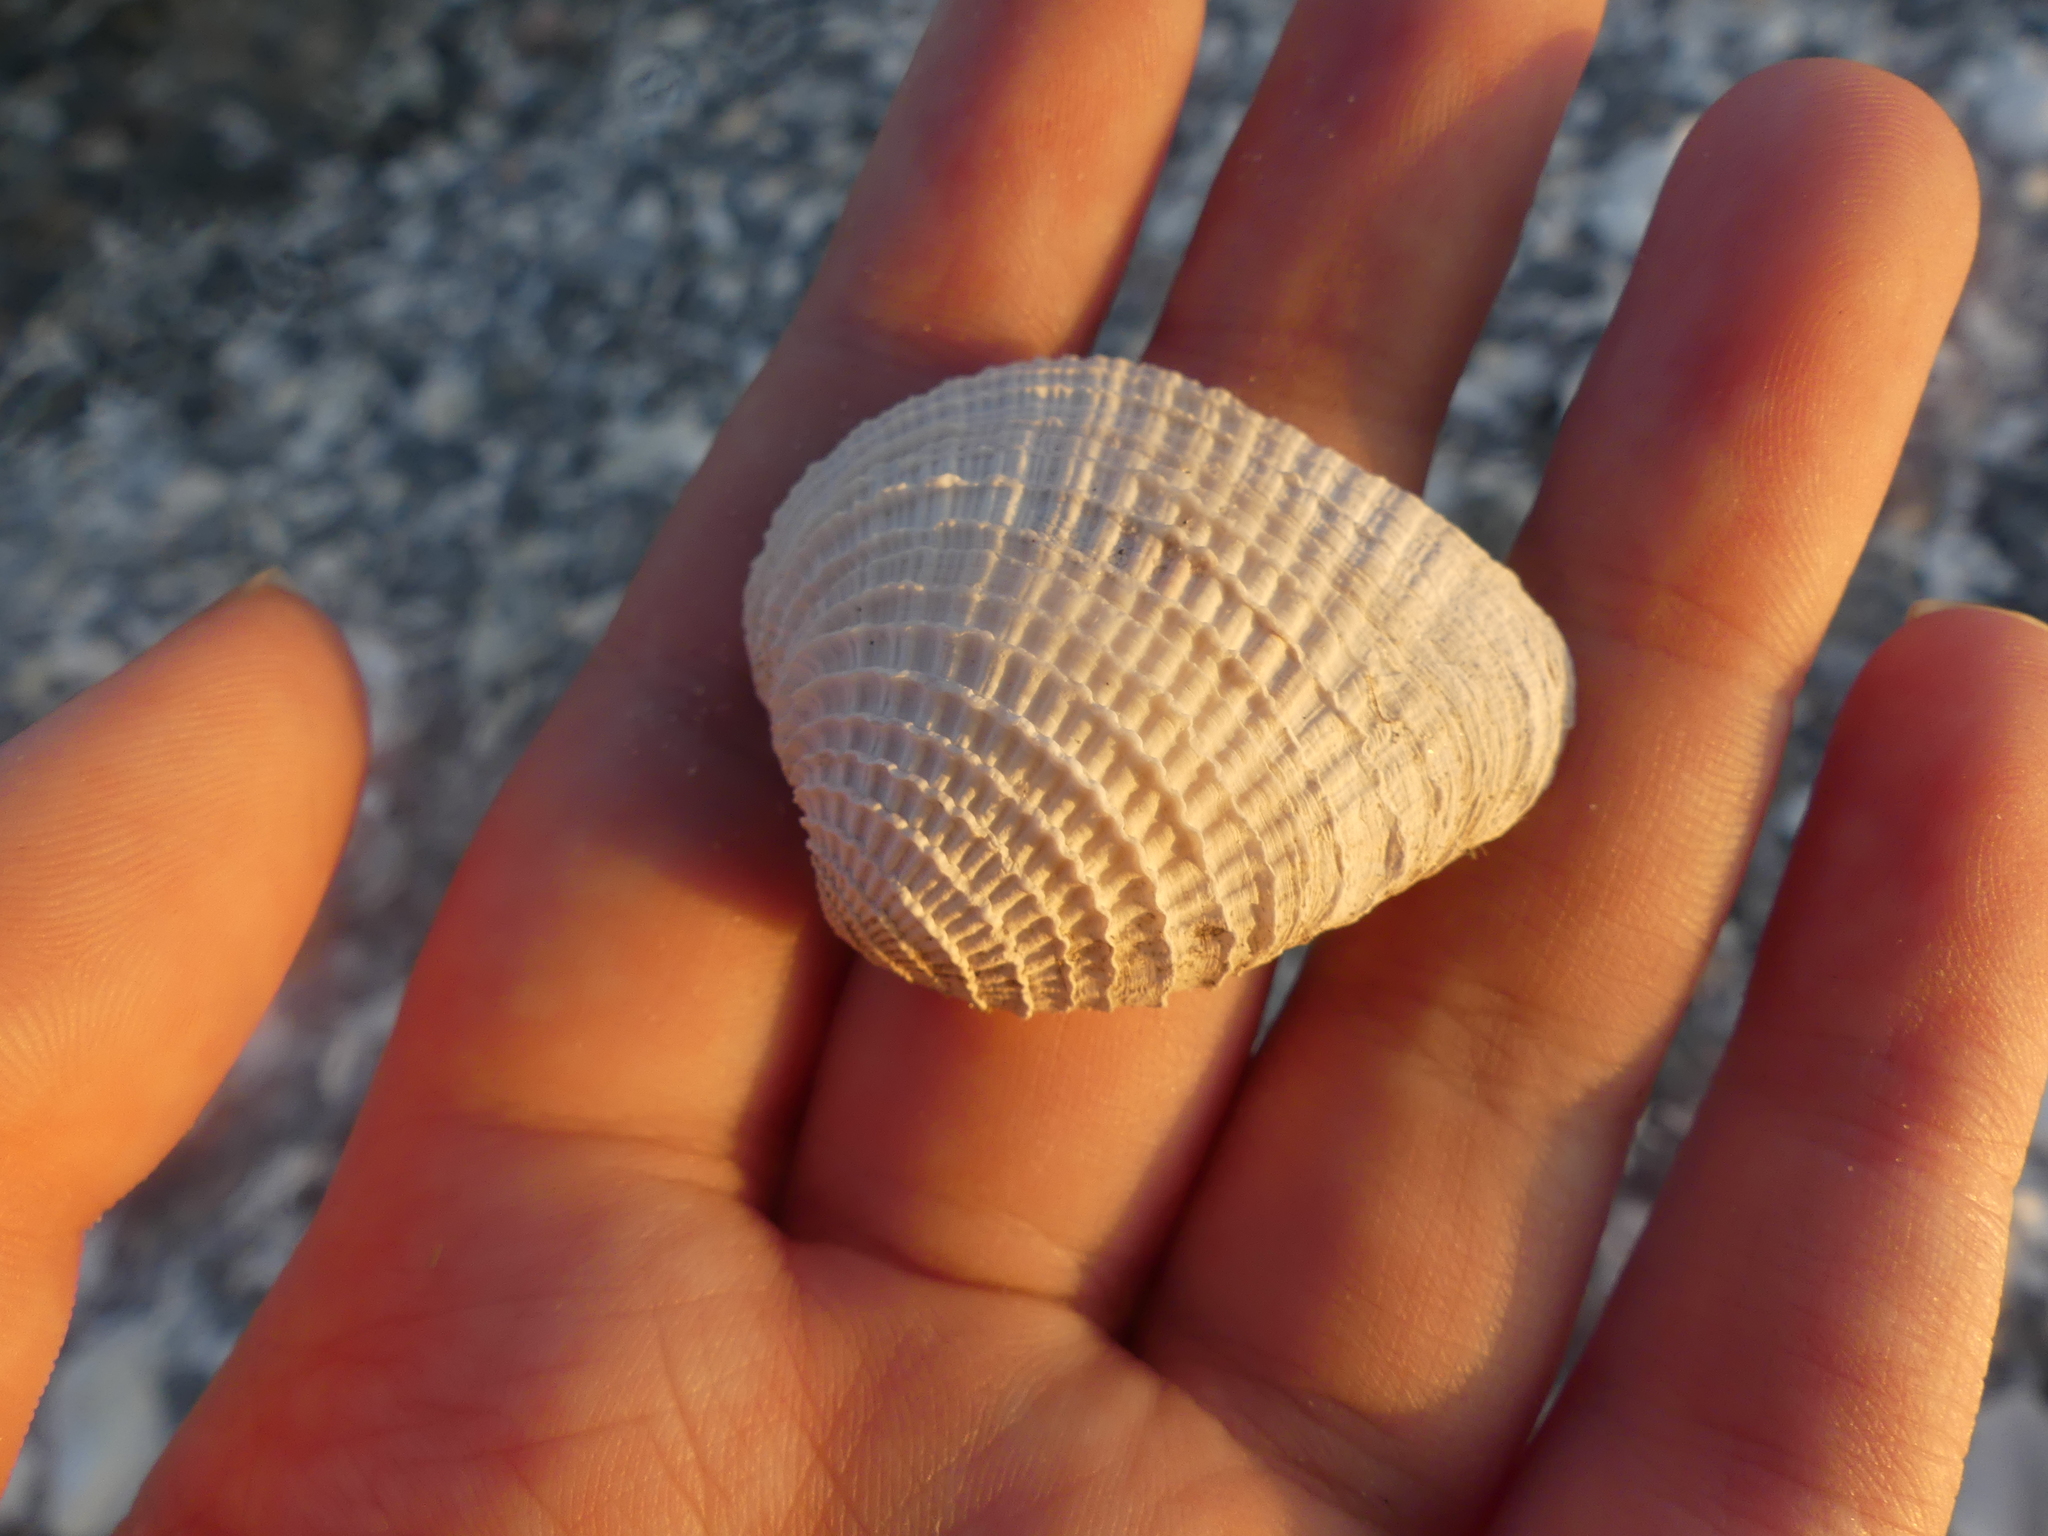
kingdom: Animalia
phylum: Mollusca
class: Bivalvia
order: Venerida
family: Veneridae
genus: Chione
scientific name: Chione elevata
